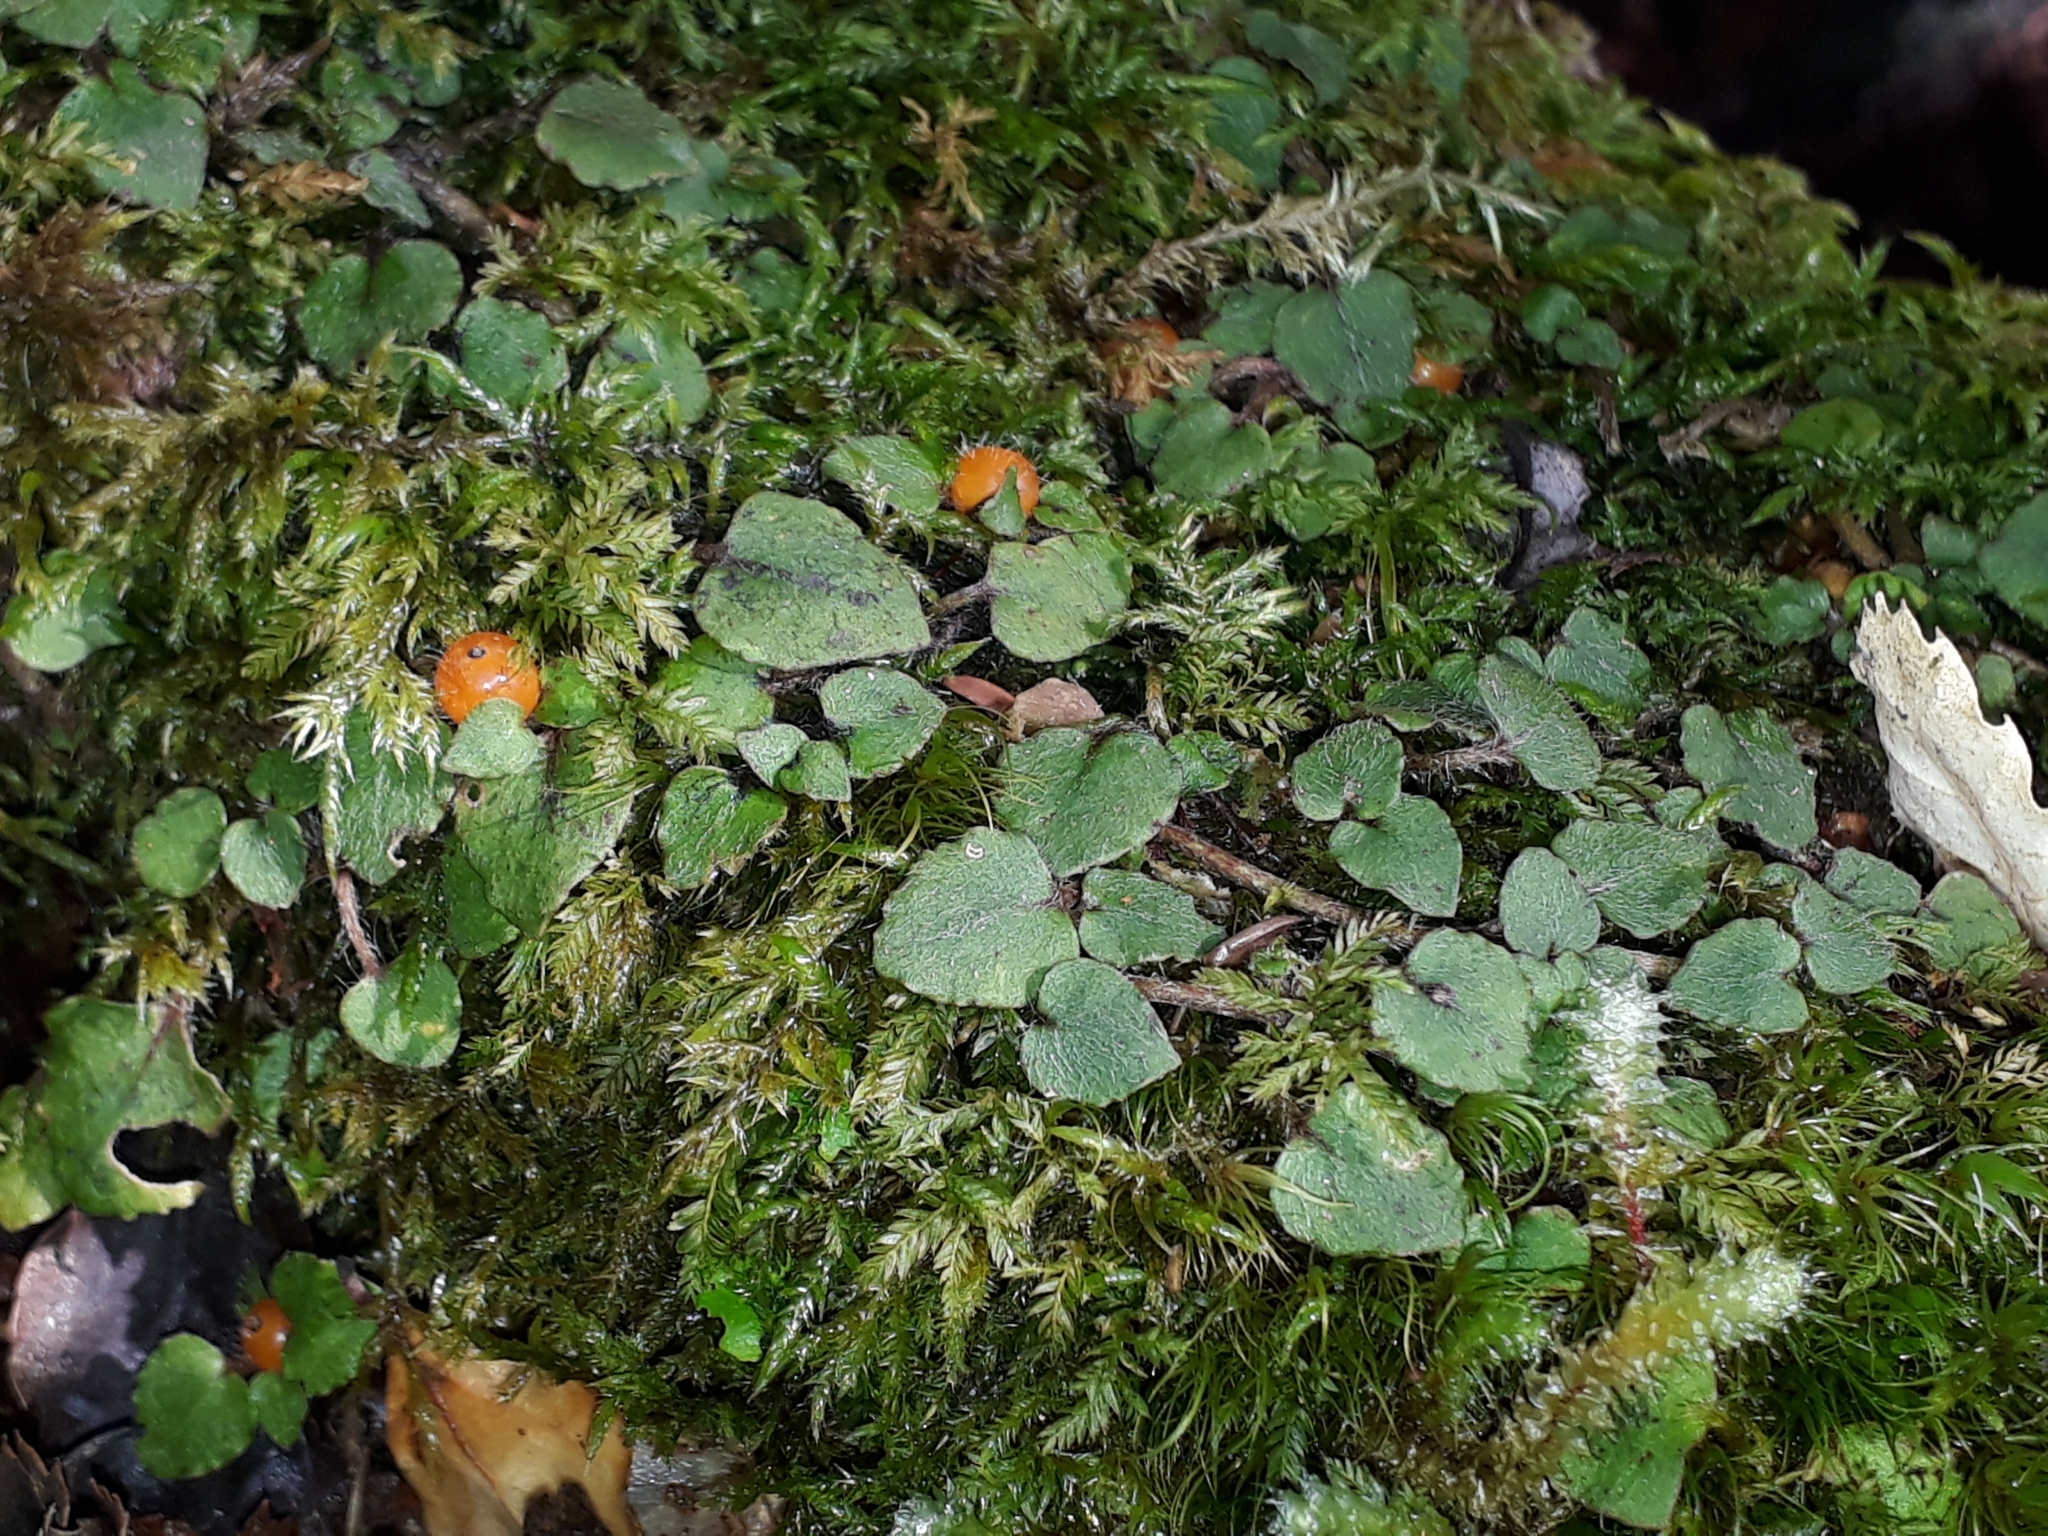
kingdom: Plantae
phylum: Tracheophyta
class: Magnoliopsida
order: Gentianales
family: Rubiaceae
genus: Nertera
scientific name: Nertera villosa
